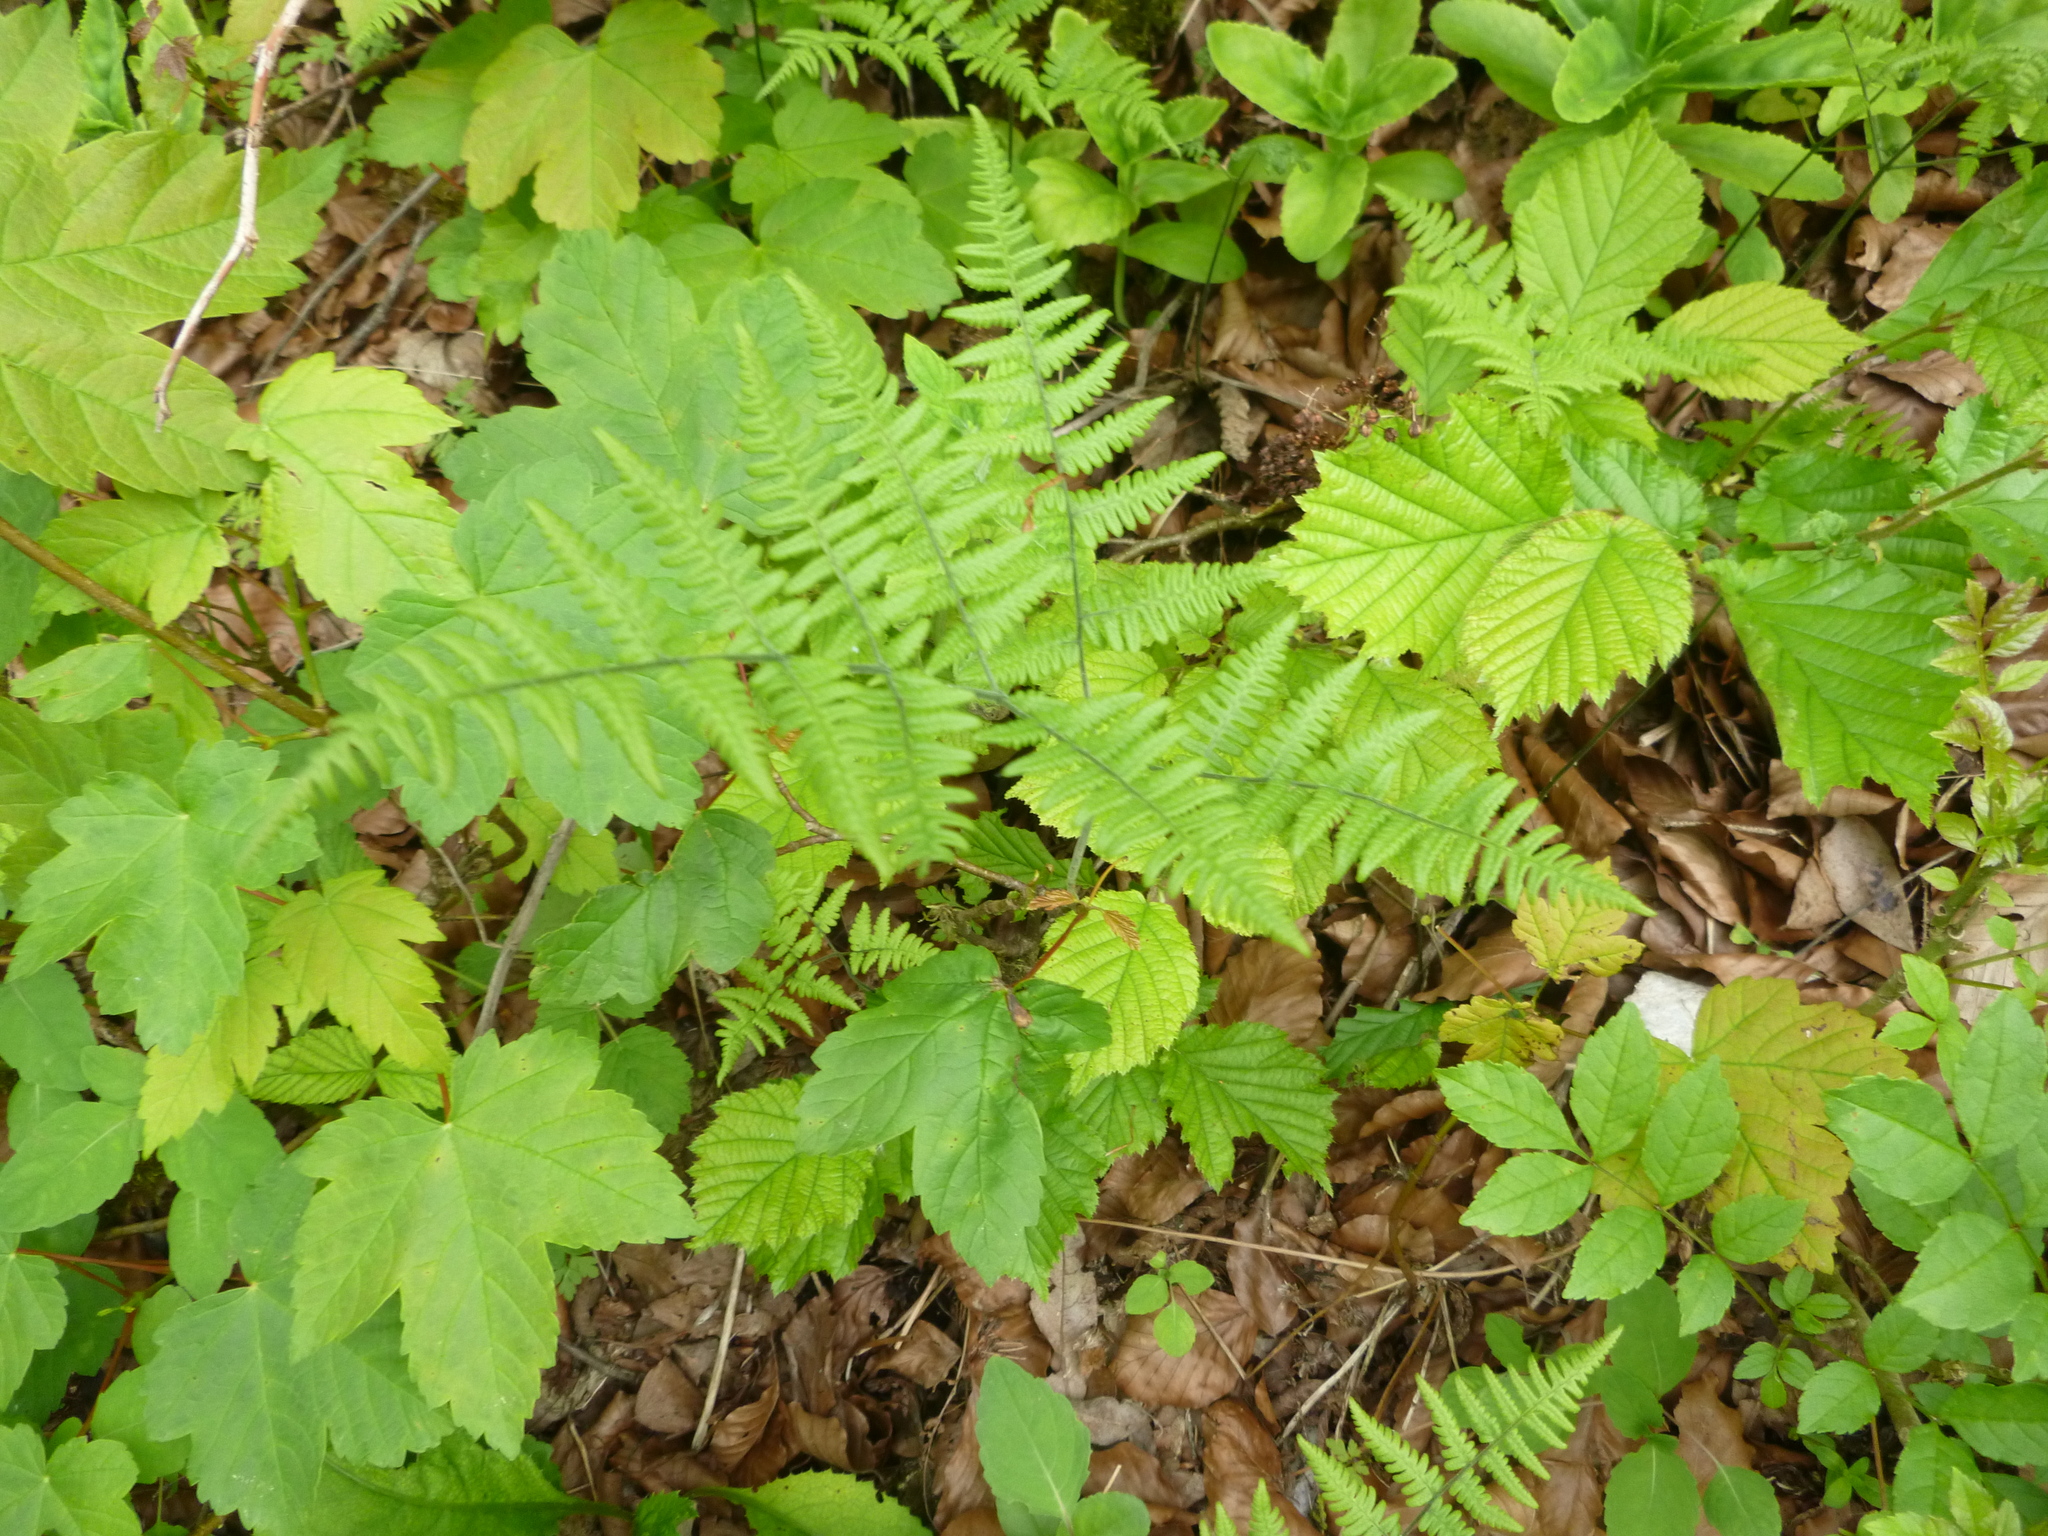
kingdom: Plantae
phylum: Tracheophyta
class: Polypodiopsida
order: Polypodiales
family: Cystopteridaceae
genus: Gymnocarpium
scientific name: Gymnocarpium robertianum
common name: Limestone fern
